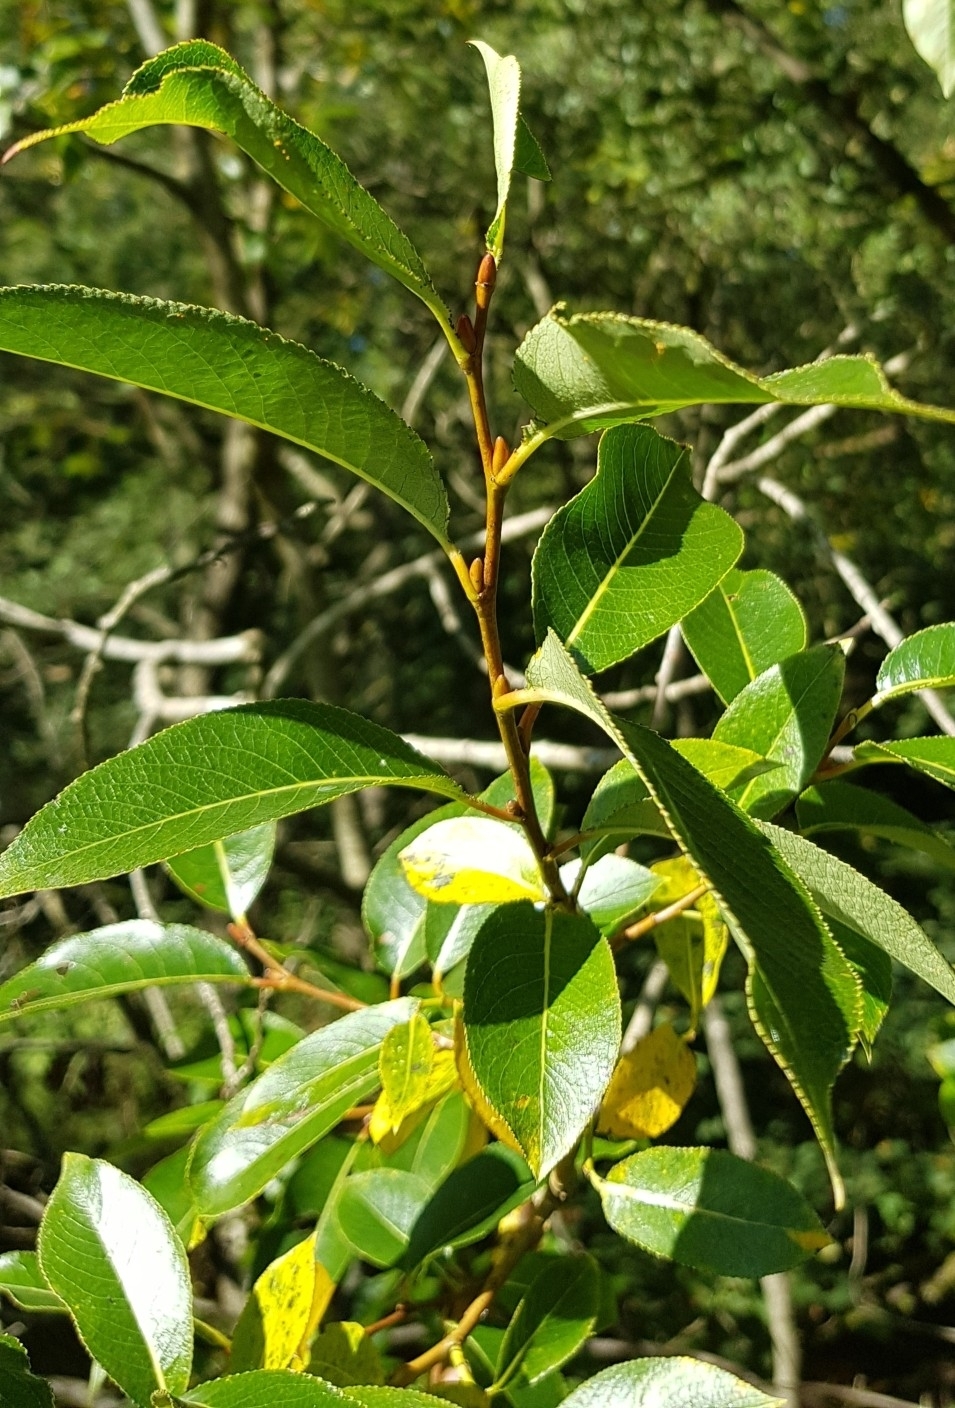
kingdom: Plantae
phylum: Tracheophyta
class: Magnoliopsida
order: Malpighiales
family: Salicaceae
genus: Salix
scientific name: Salix pentandra
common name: Bay willow
